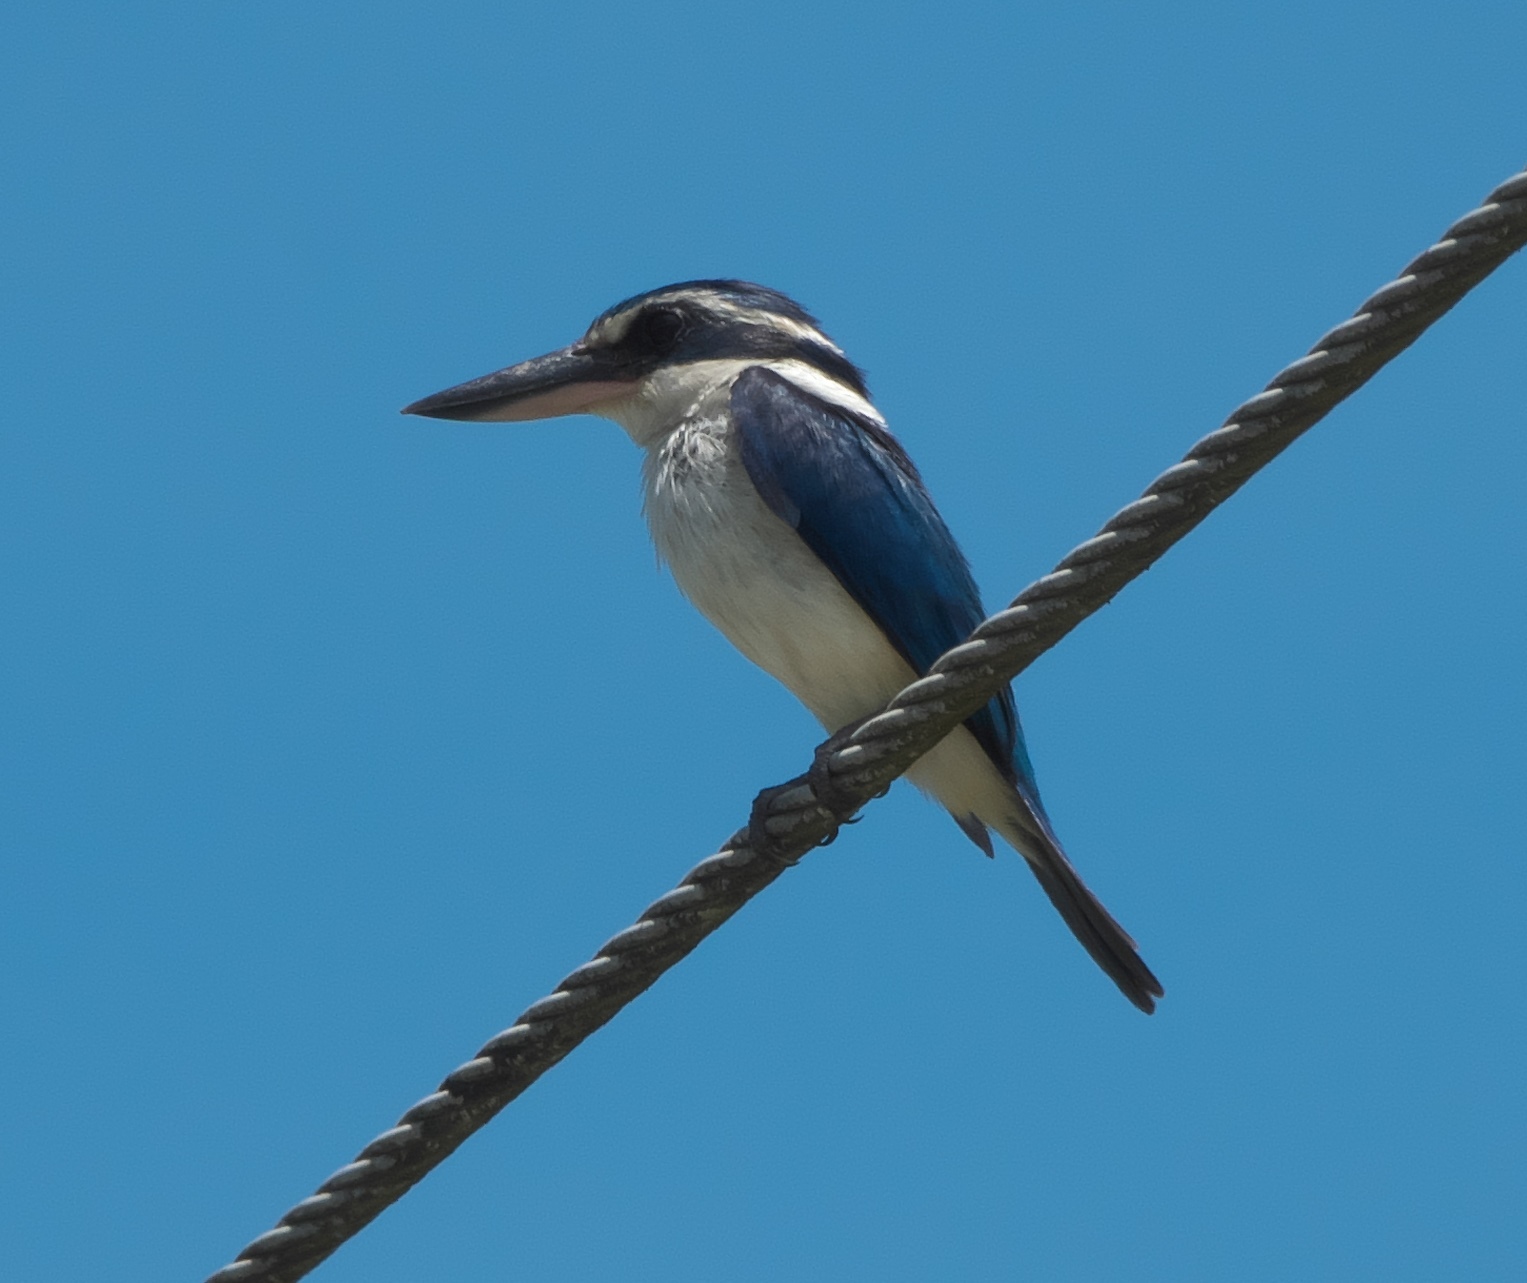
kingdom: Animalia
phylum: Chordata
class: Aves
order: Coraciiformes
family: Alcedinidae
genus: Todiramphus
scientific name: Todiramphus sacer
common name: Pacific kingfisher
